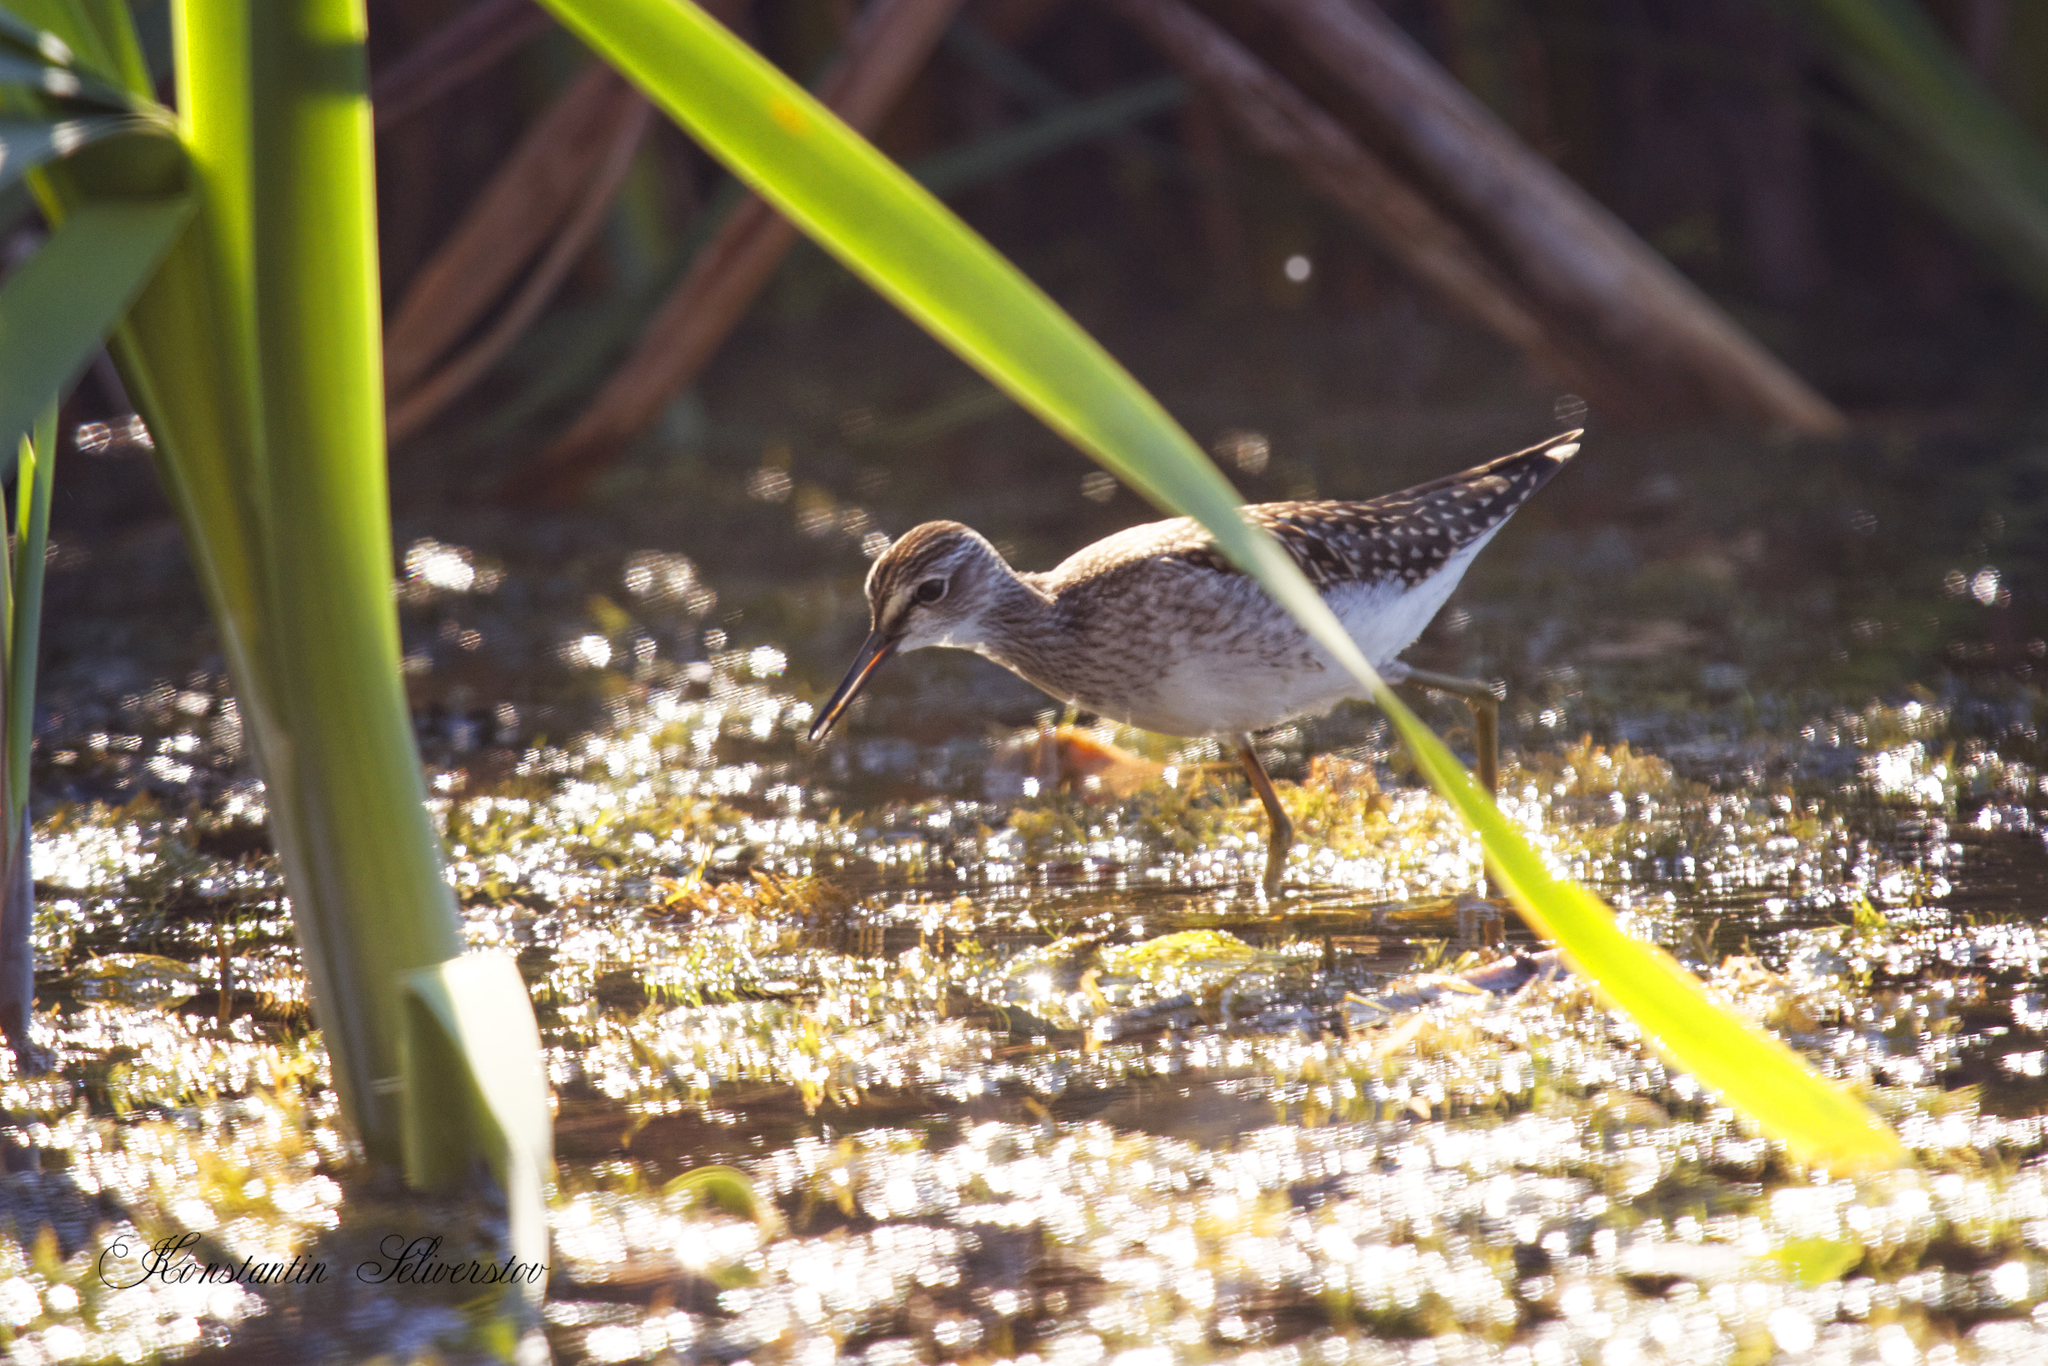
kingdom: Animalia
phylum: Chordata
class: Aves
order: Charadriiformes
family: Scolopacidae
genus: Tringa
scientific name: Tringa glareola
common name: Wood sandpiper
